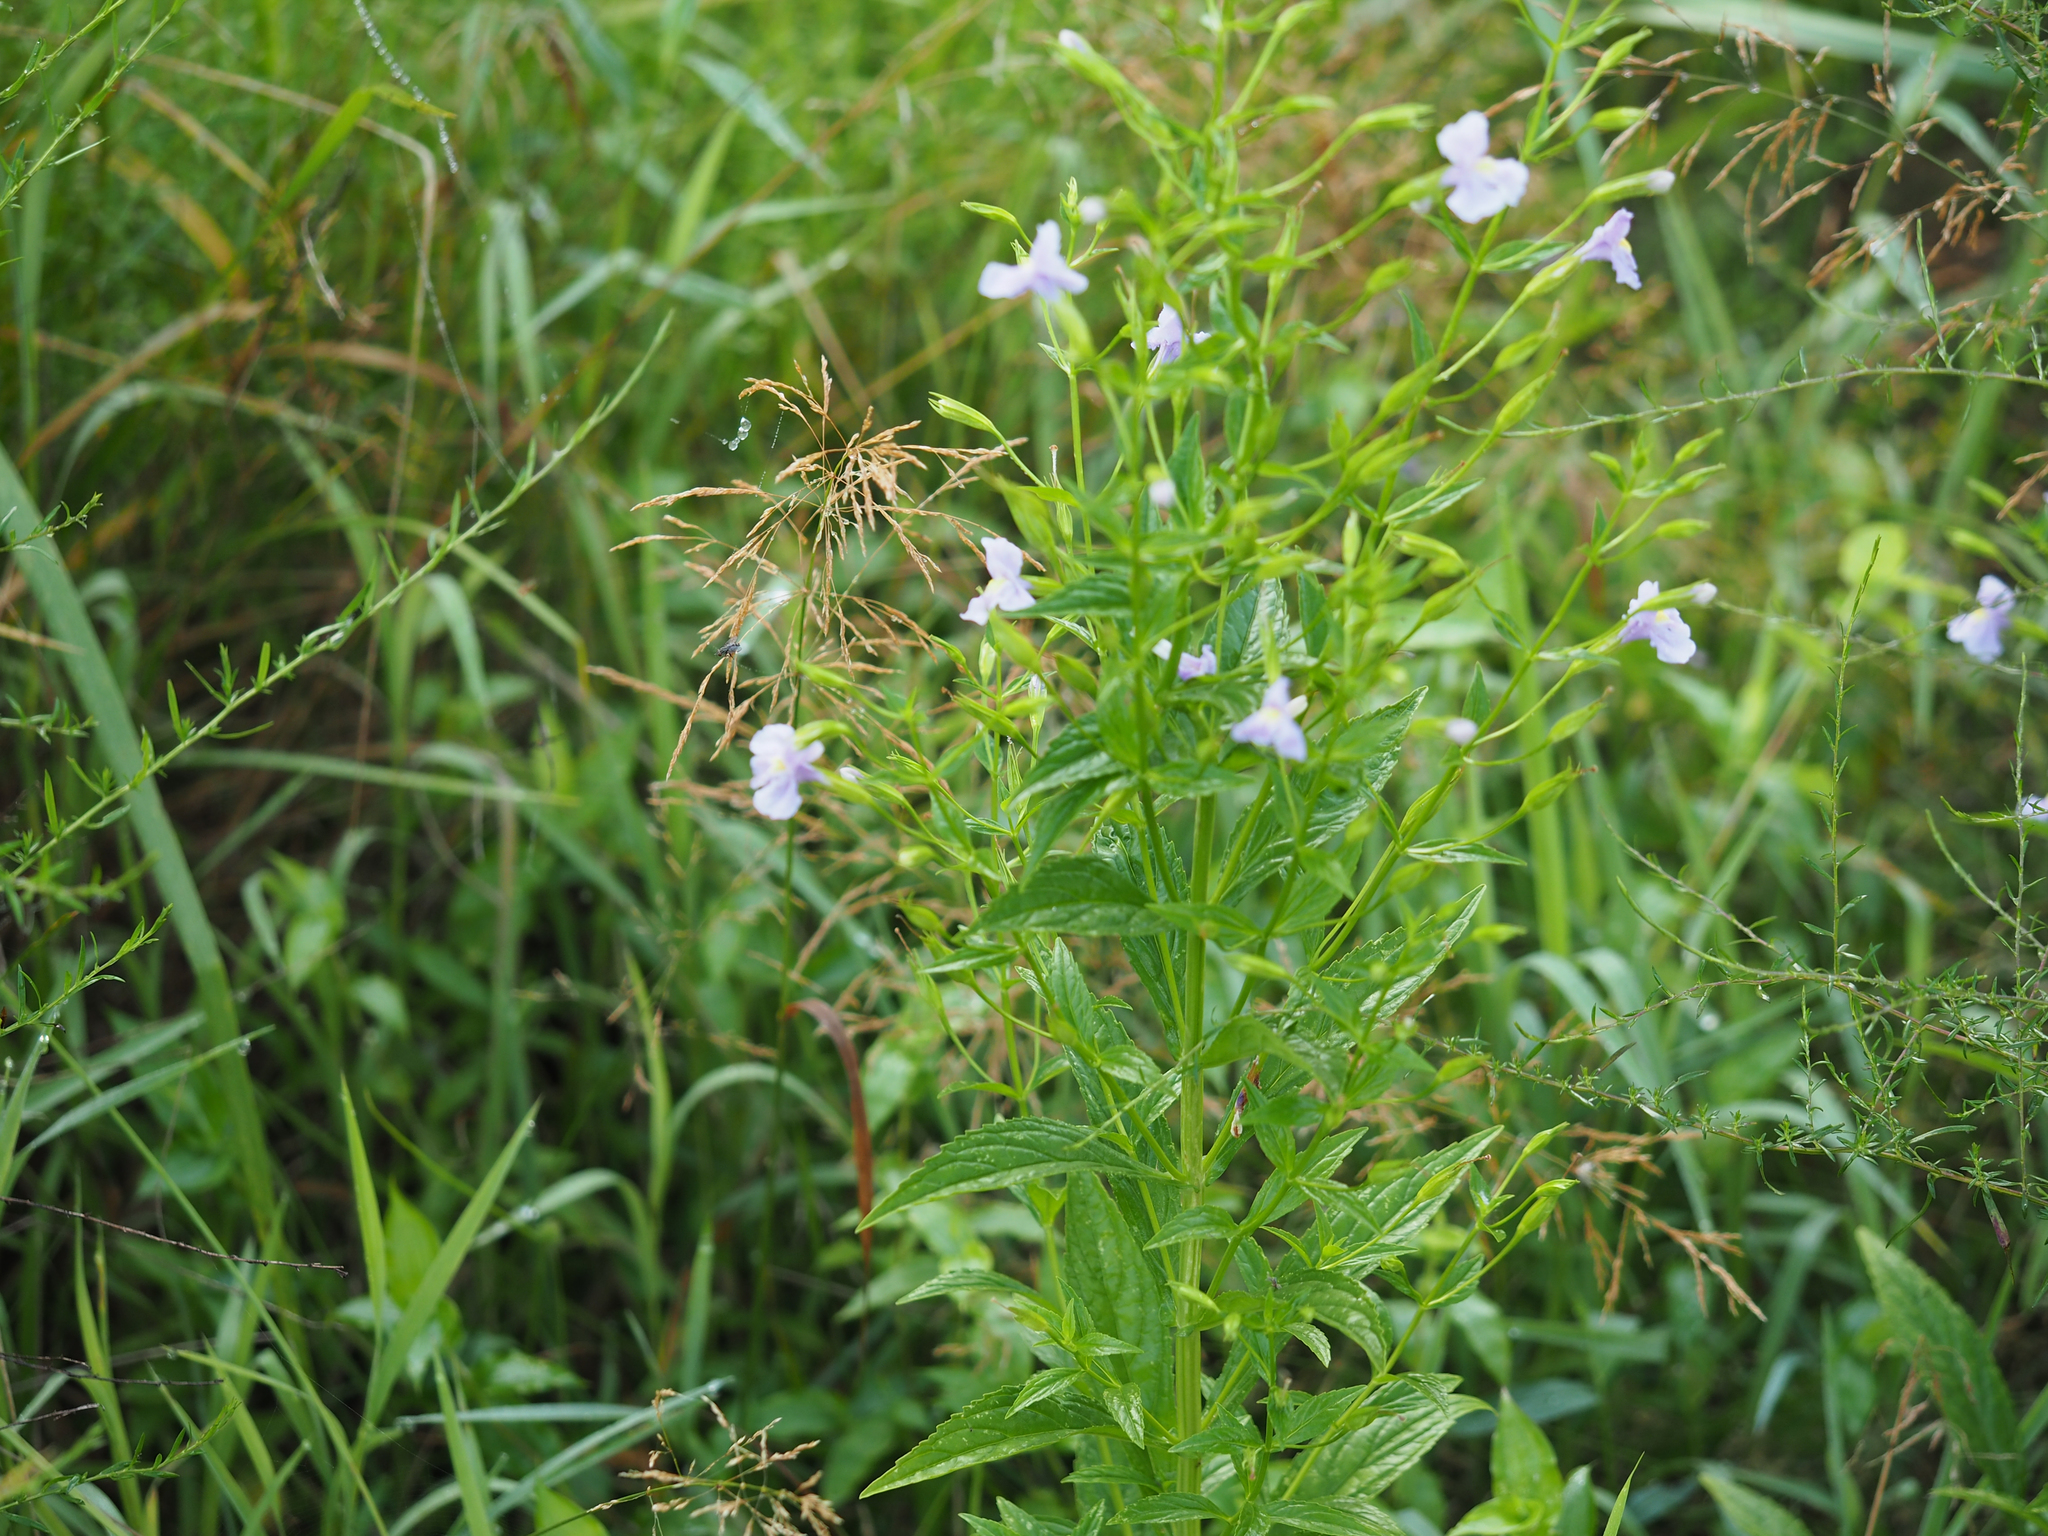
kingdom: Plantae
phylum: Tracheophyta
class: Magnoliopsida
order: Lamiales
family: Phrymaceae
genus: Mimulus
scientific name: Mimulus ringens
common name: Allegheny monkeyflower
